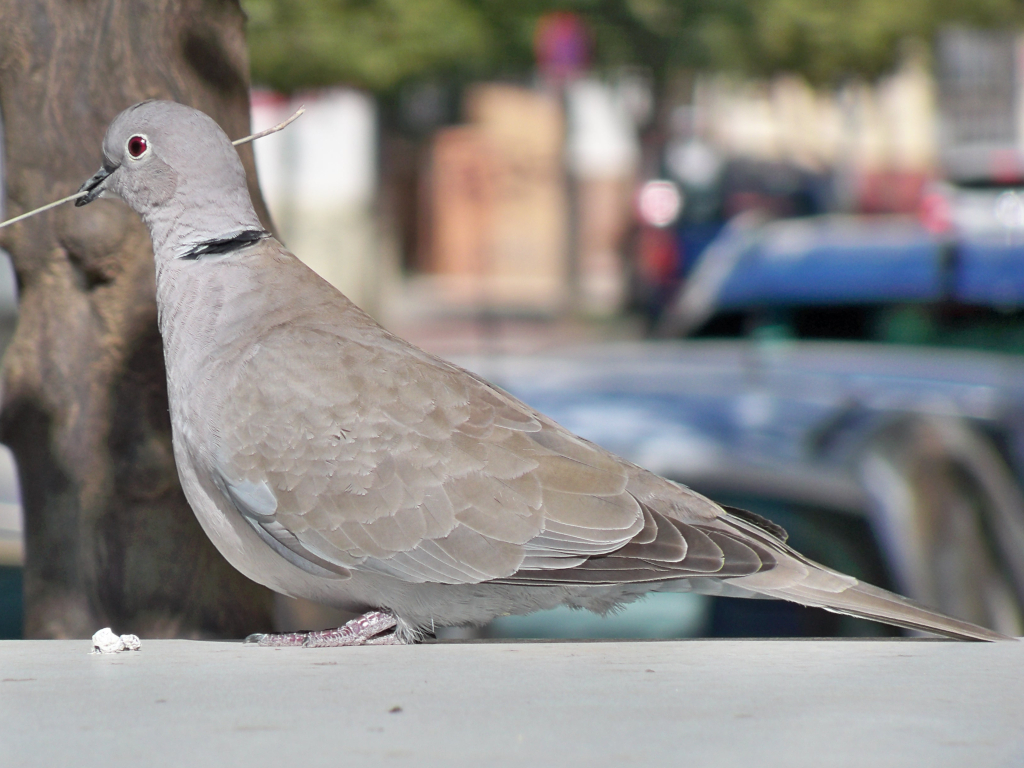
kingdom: Animalia
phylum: Chordata
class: Aves
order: Columbiformes
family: Columbidae
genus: Streptopelia
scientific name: Streptopelia decaocto
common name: Eurasian collared dove
